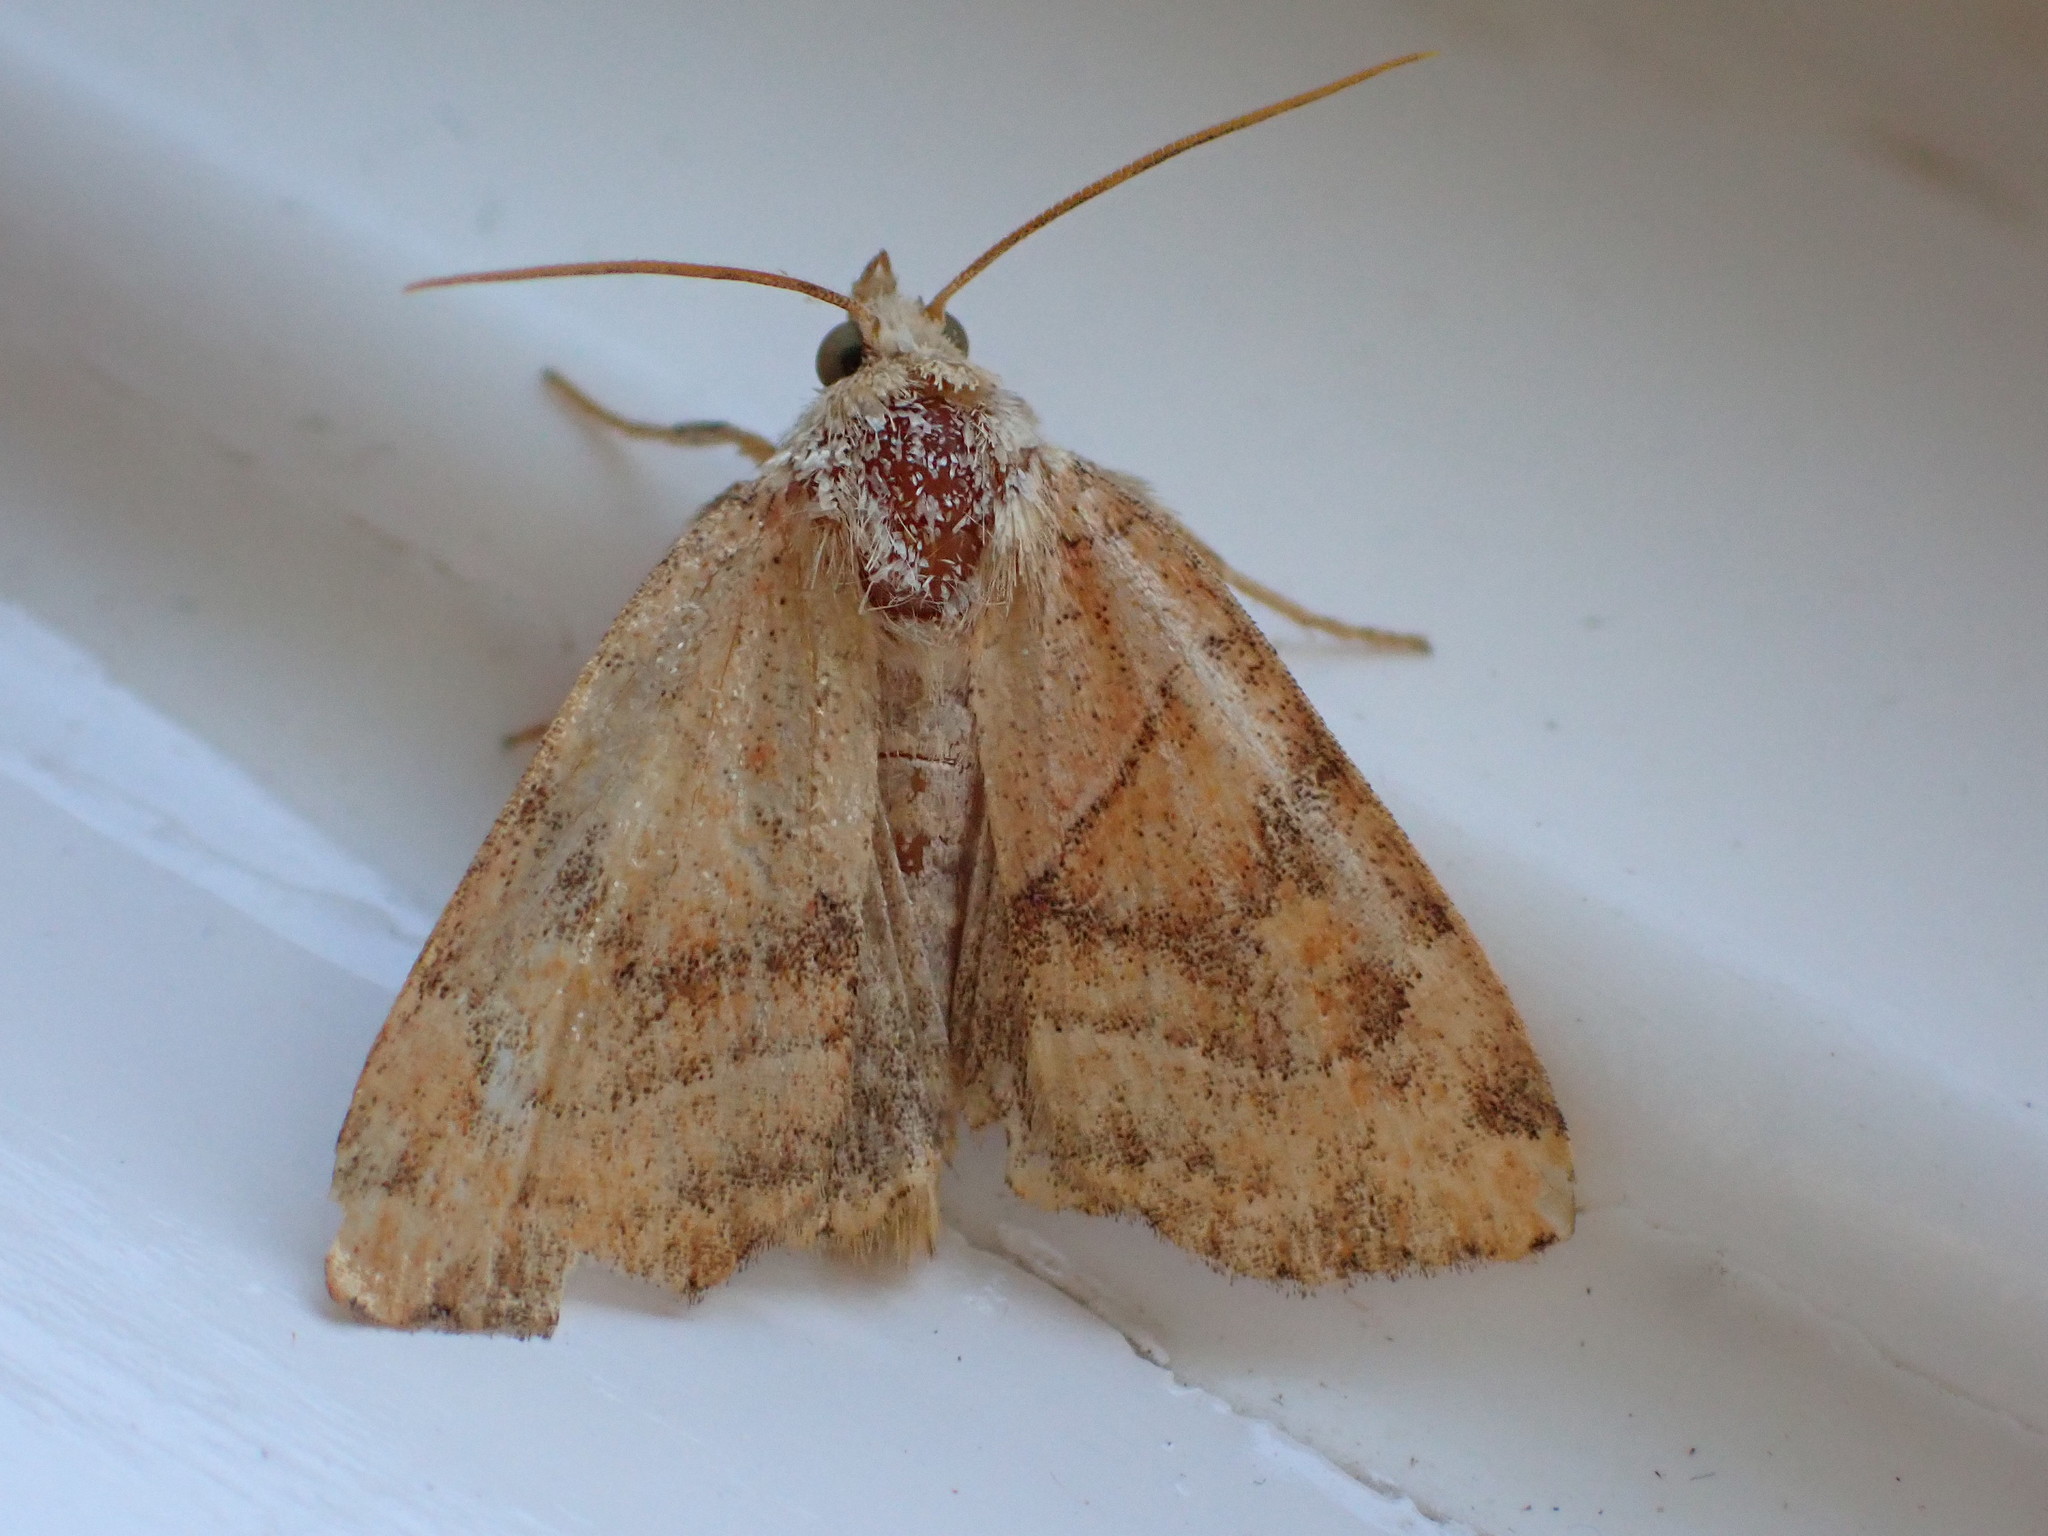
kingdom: Animalia
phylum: Arthropoda
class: Insecta
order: Lepidoptera
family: Noctuidae
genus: Cosmia
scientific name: Cosmia trapezina
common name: Dun-bar
